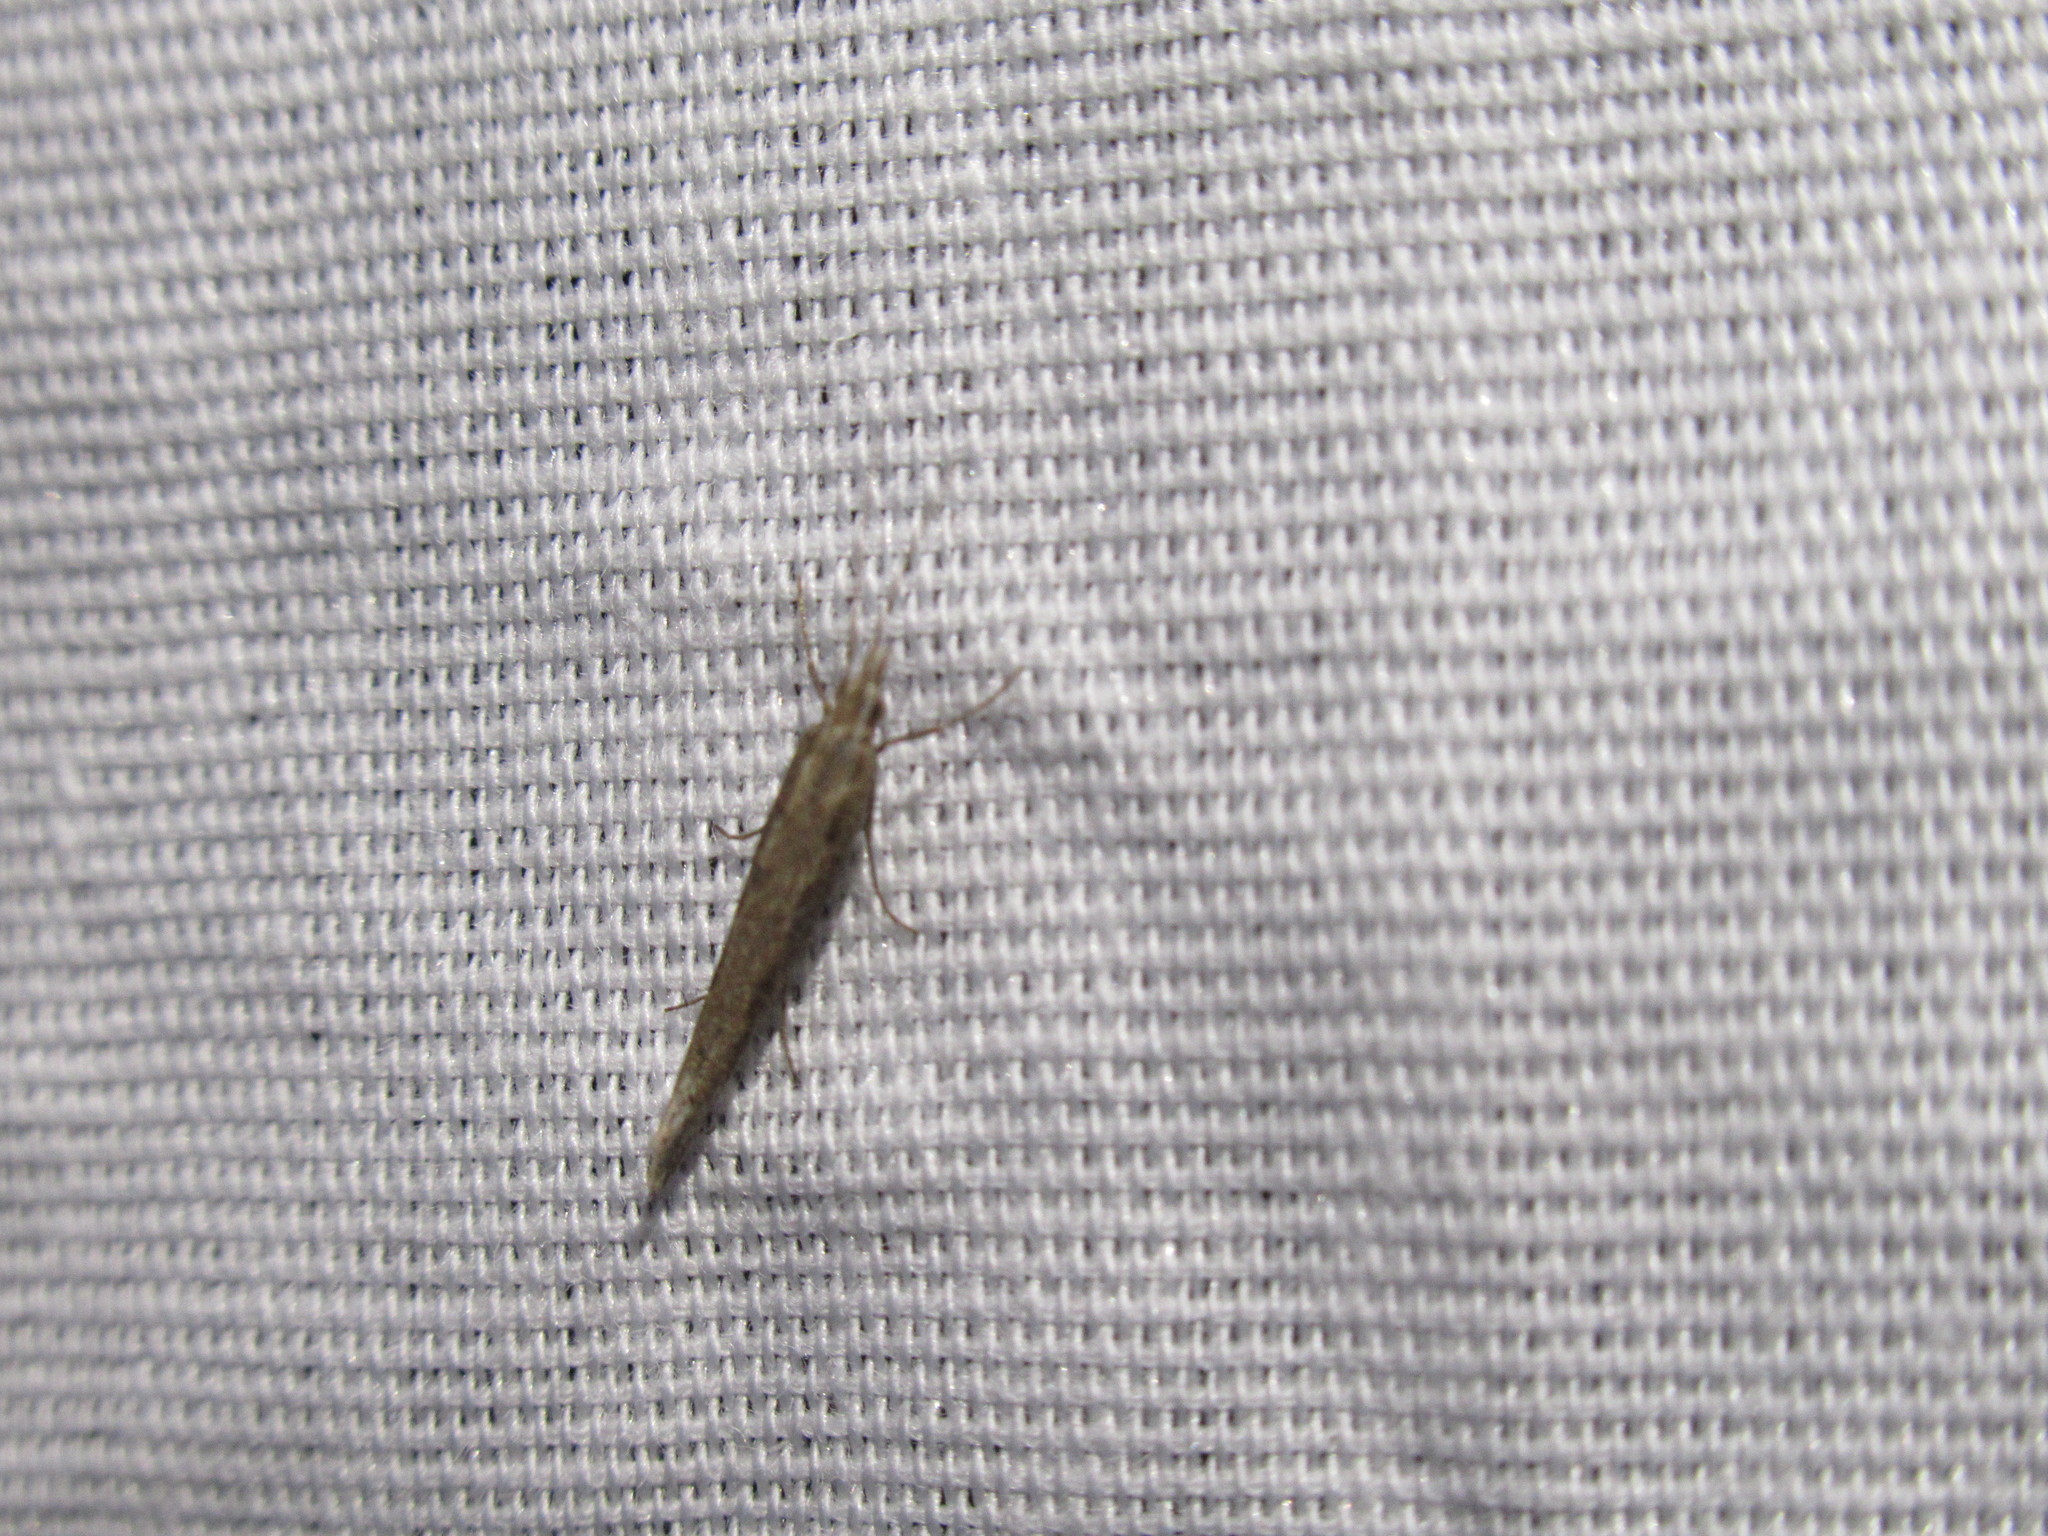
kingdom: Animalia
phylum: Arthropoda
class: Insecta
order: Lepidoptera
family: Plutellidae
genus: Plutella
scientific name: Plutella xylostella
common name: Diamond-back moth
